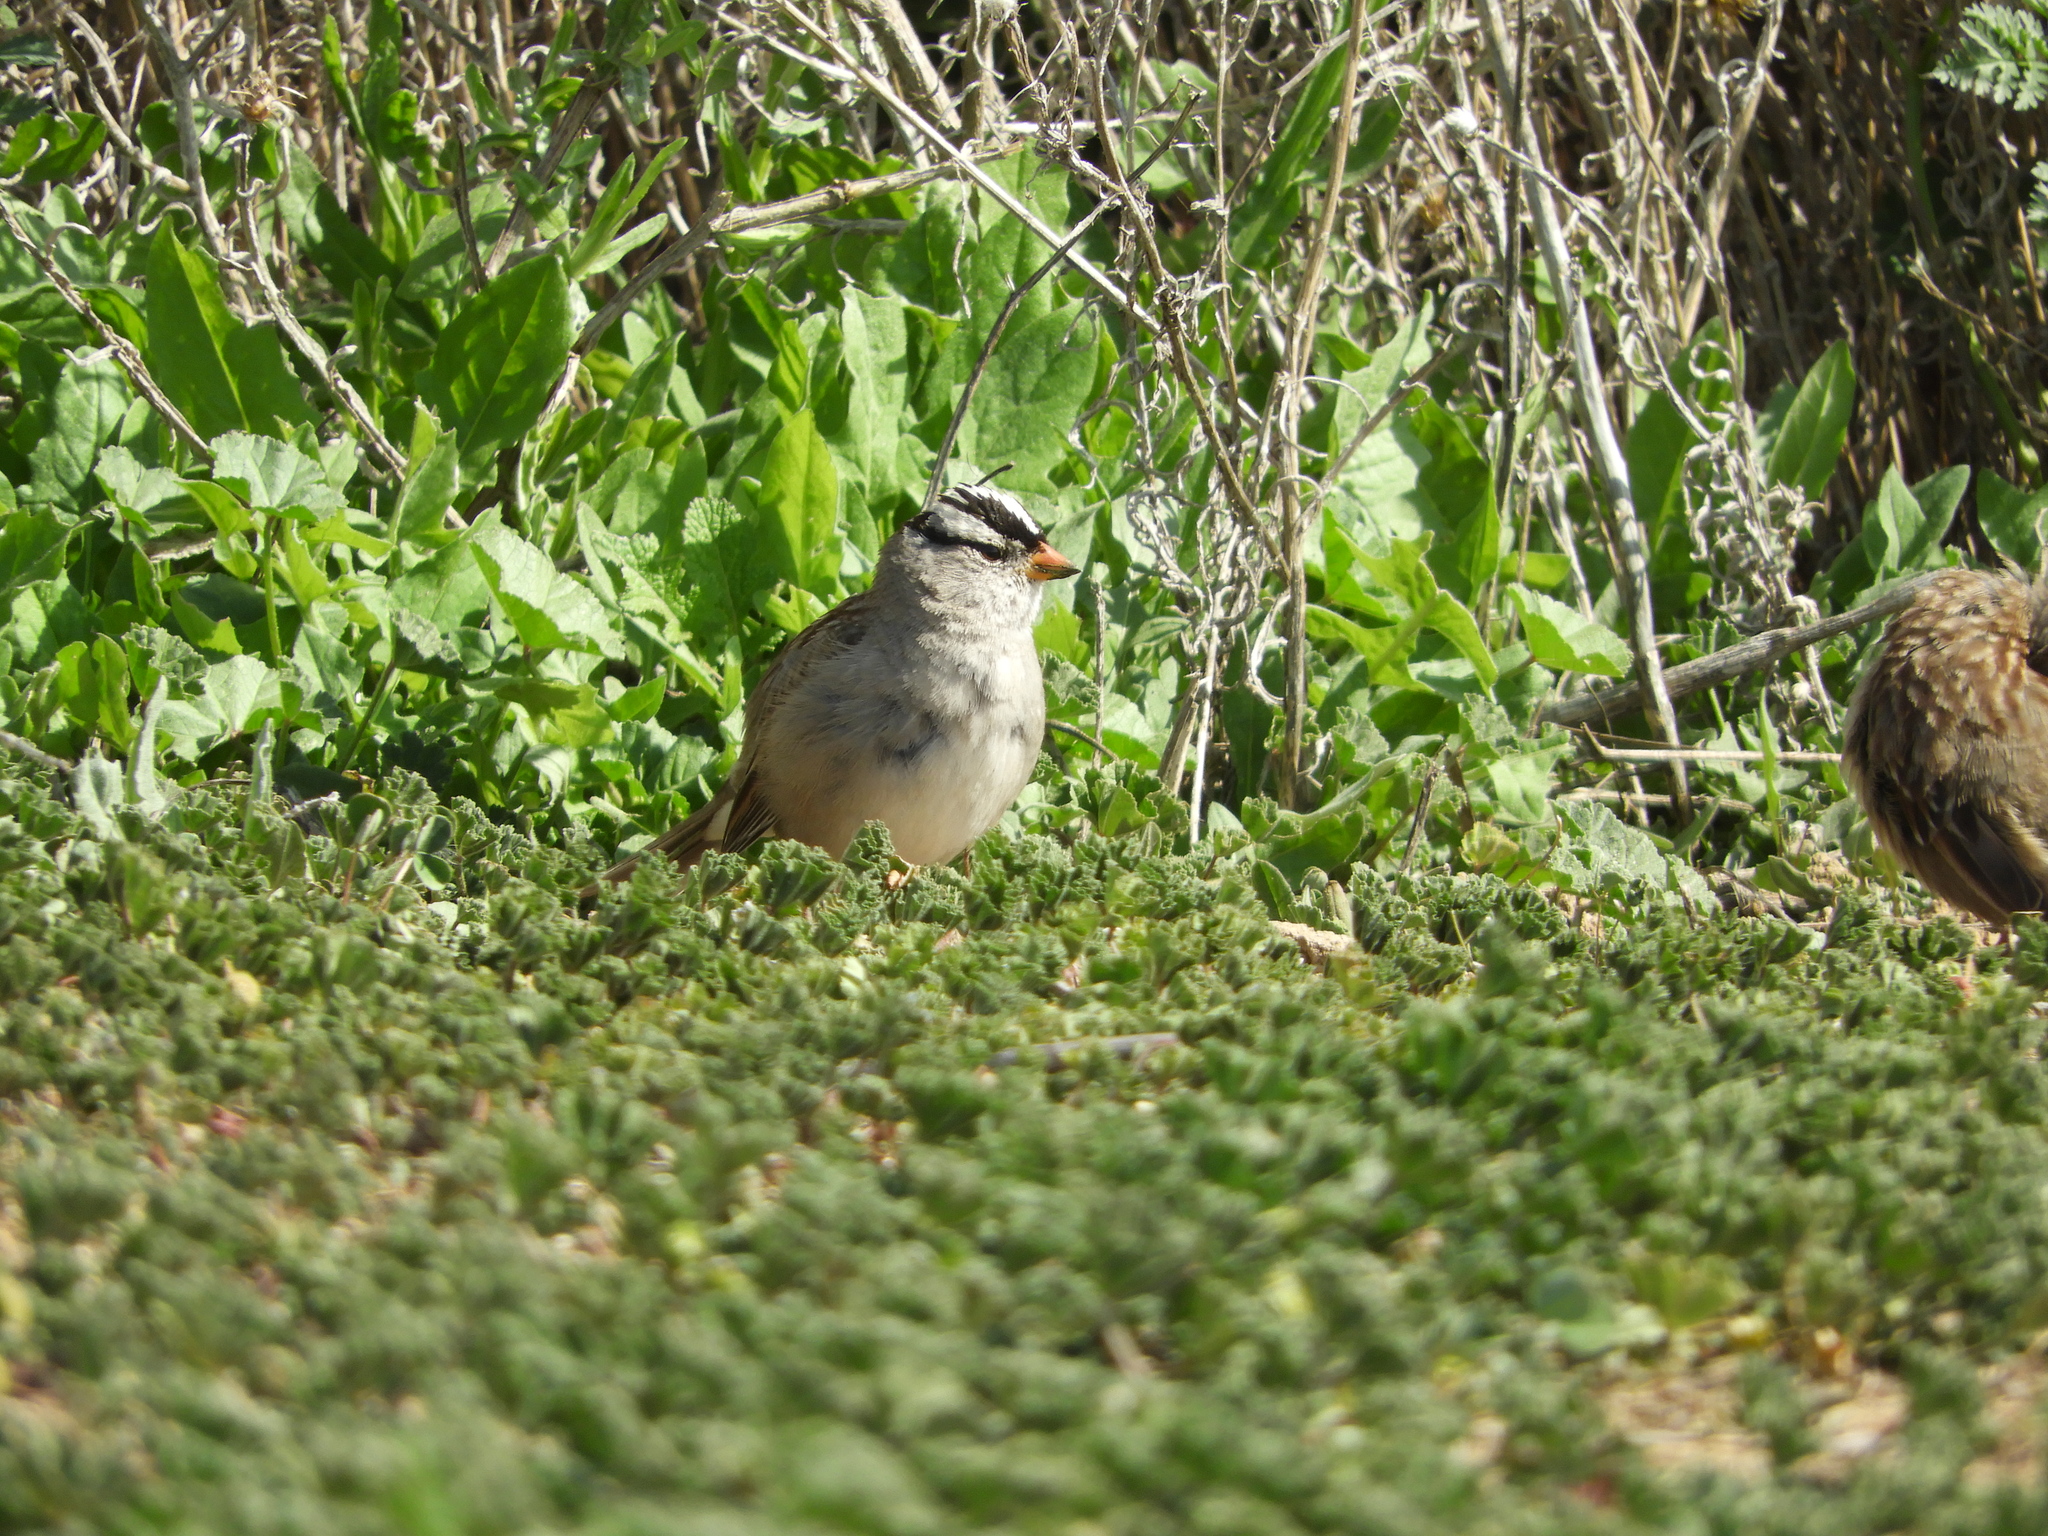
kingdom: Animalia
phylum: Chordata
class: Aves
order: Passeriformes
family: Passerellidae
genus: Zonotrichia
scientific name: Zonotrichia leucophrys
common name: White-crowned sparrow
